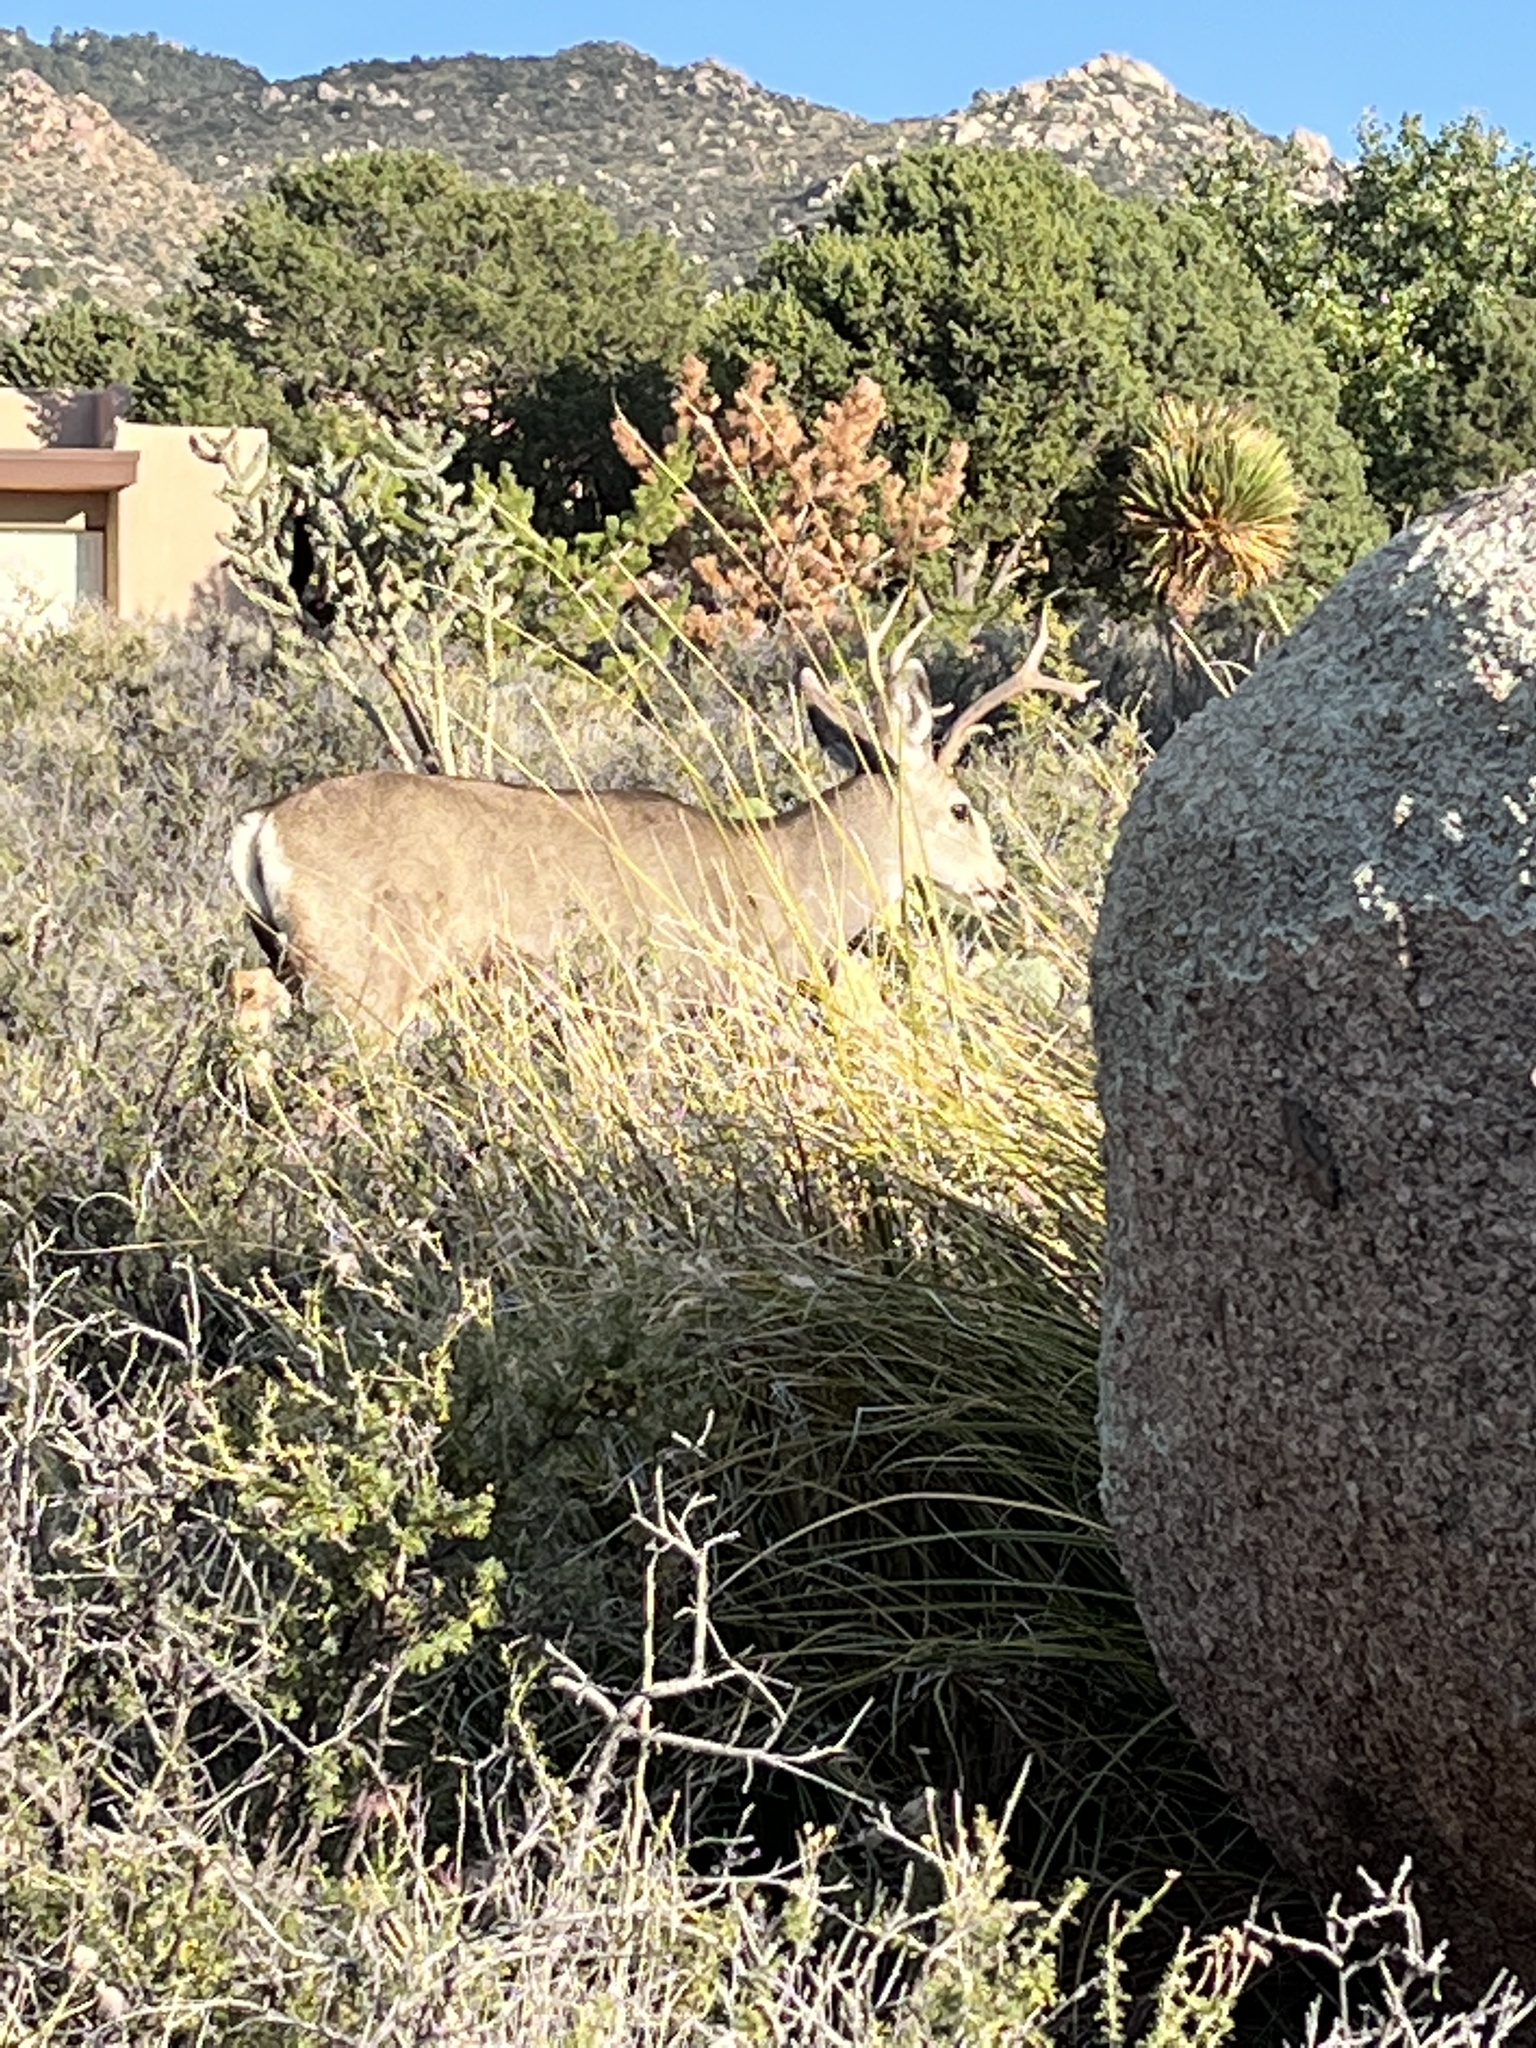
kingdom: Animalia
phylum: Chordata
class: Mammalia
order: Artiodactyla
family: Cervidae
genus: Odocoileus
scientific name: Odocoileus hemionus
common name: Mule deer
